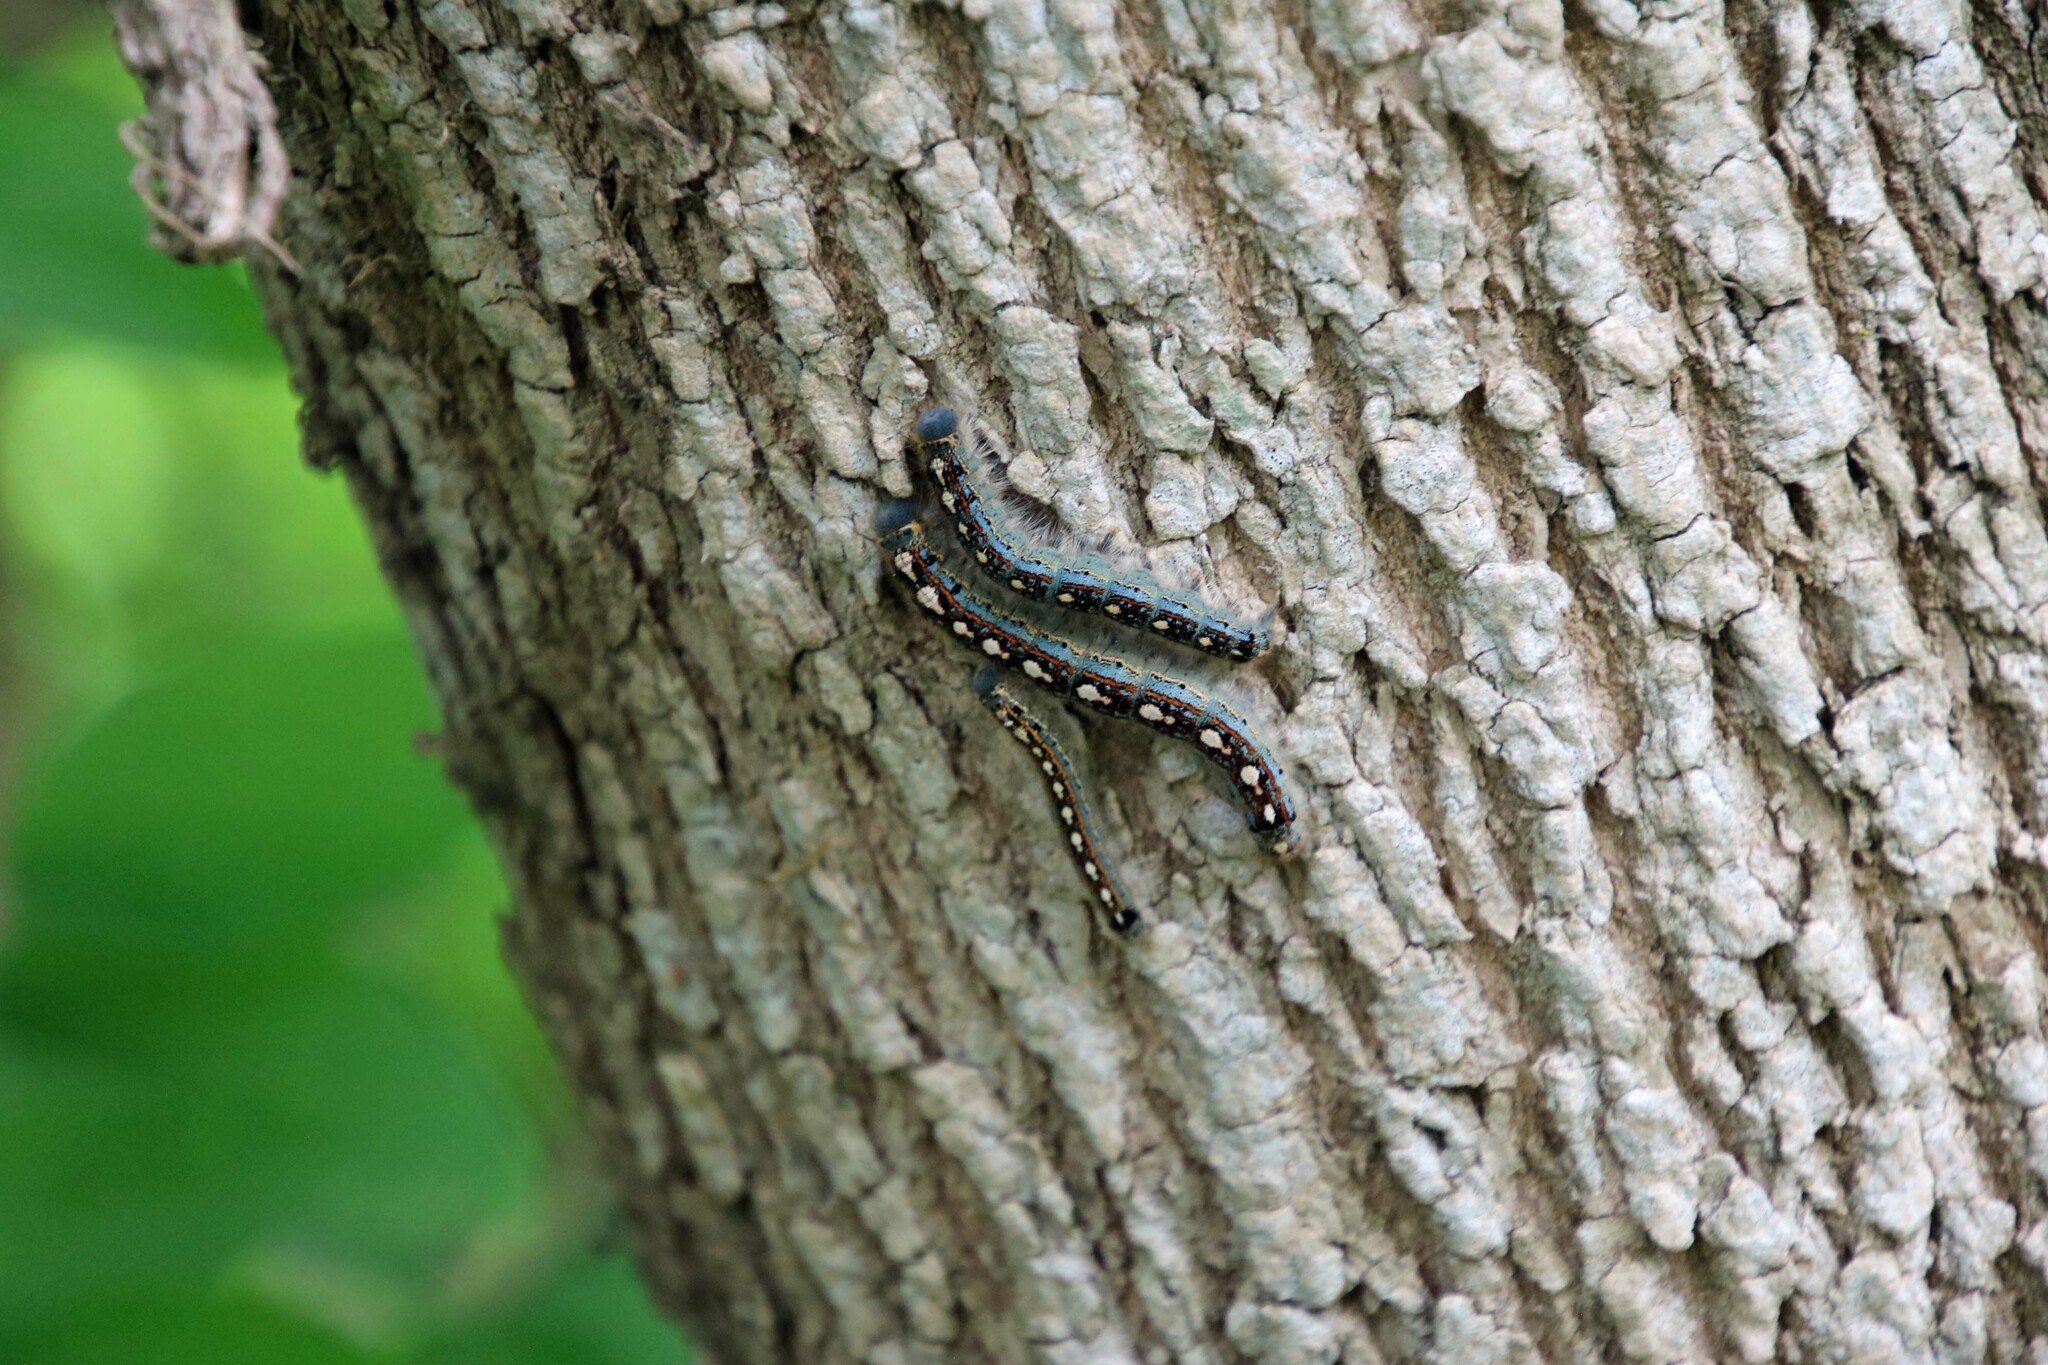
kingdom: Animalia
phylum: Arthropoda
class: Insecta
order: Lepidoptera
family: Lasiocampidae
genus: Malacosoma
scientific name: Malacosoma disstria
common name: Forest tent caterpillar
